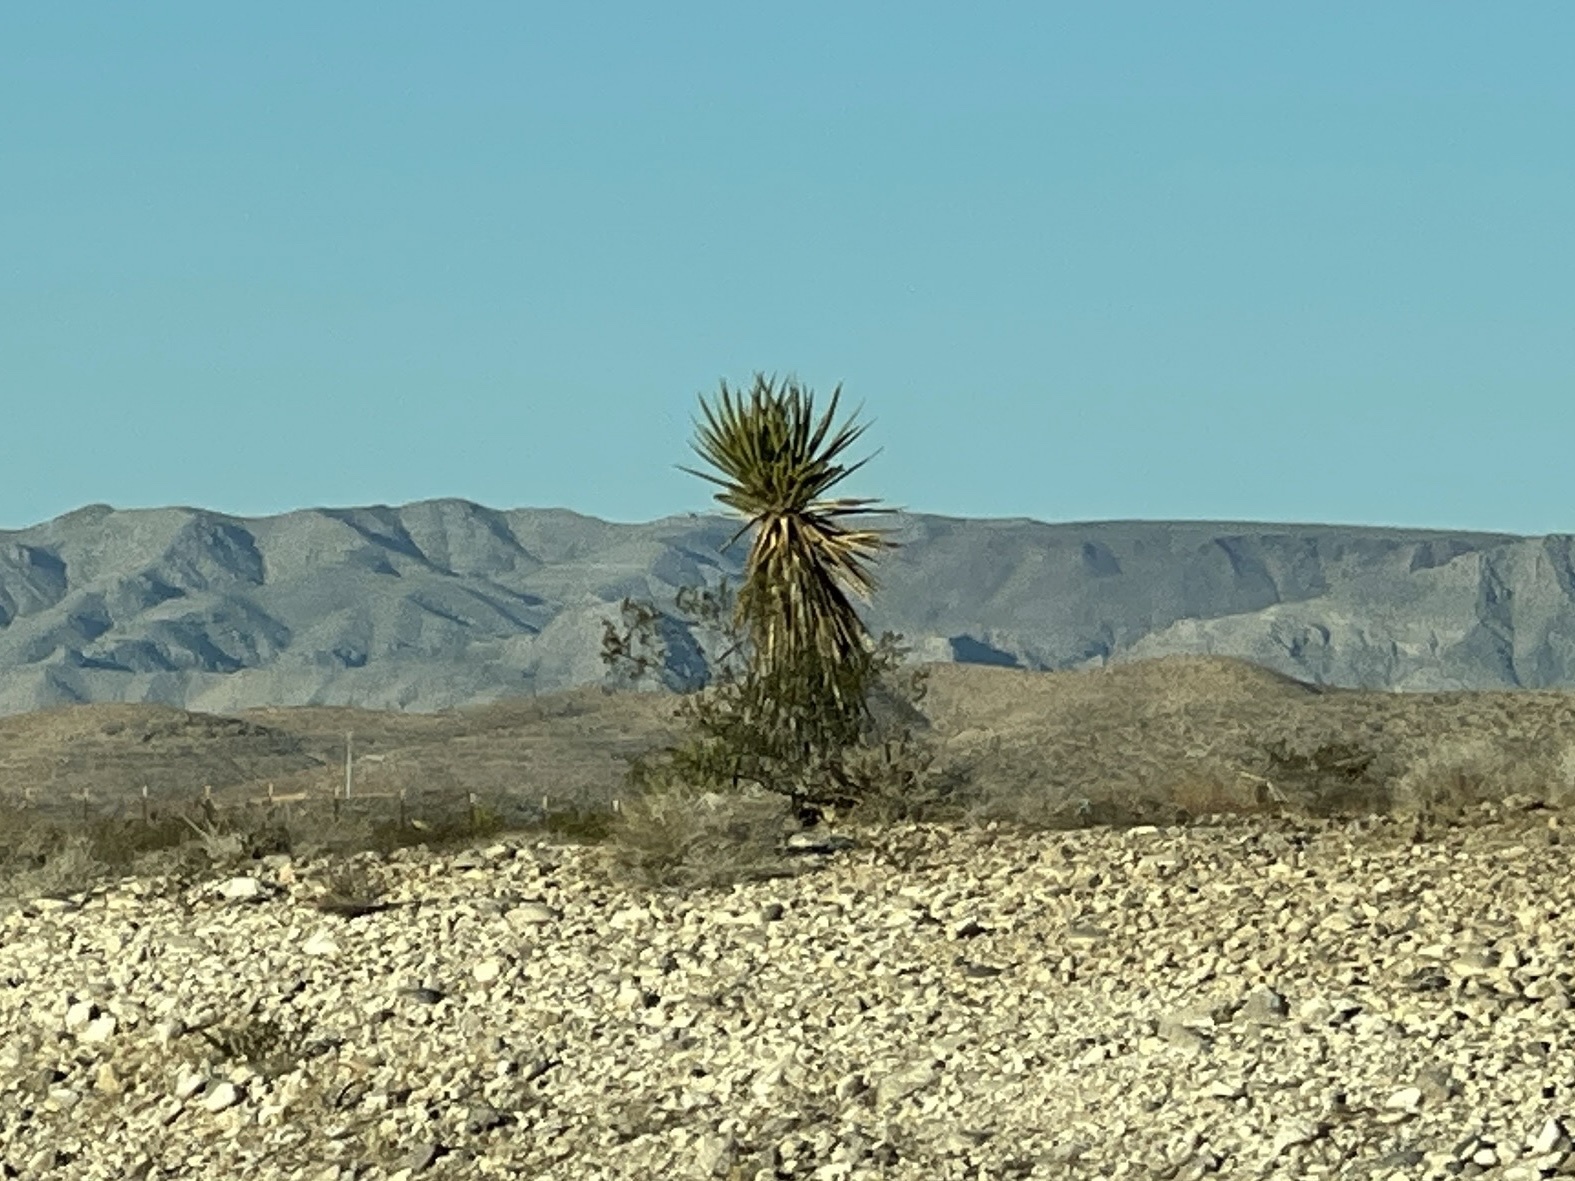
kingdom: Plantae
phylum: Tracheophyta
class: Liliopsida
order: Asparagales
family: Asparagaceae
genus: Yucca
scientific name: Yucca schidigera
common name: Mojave yucca
